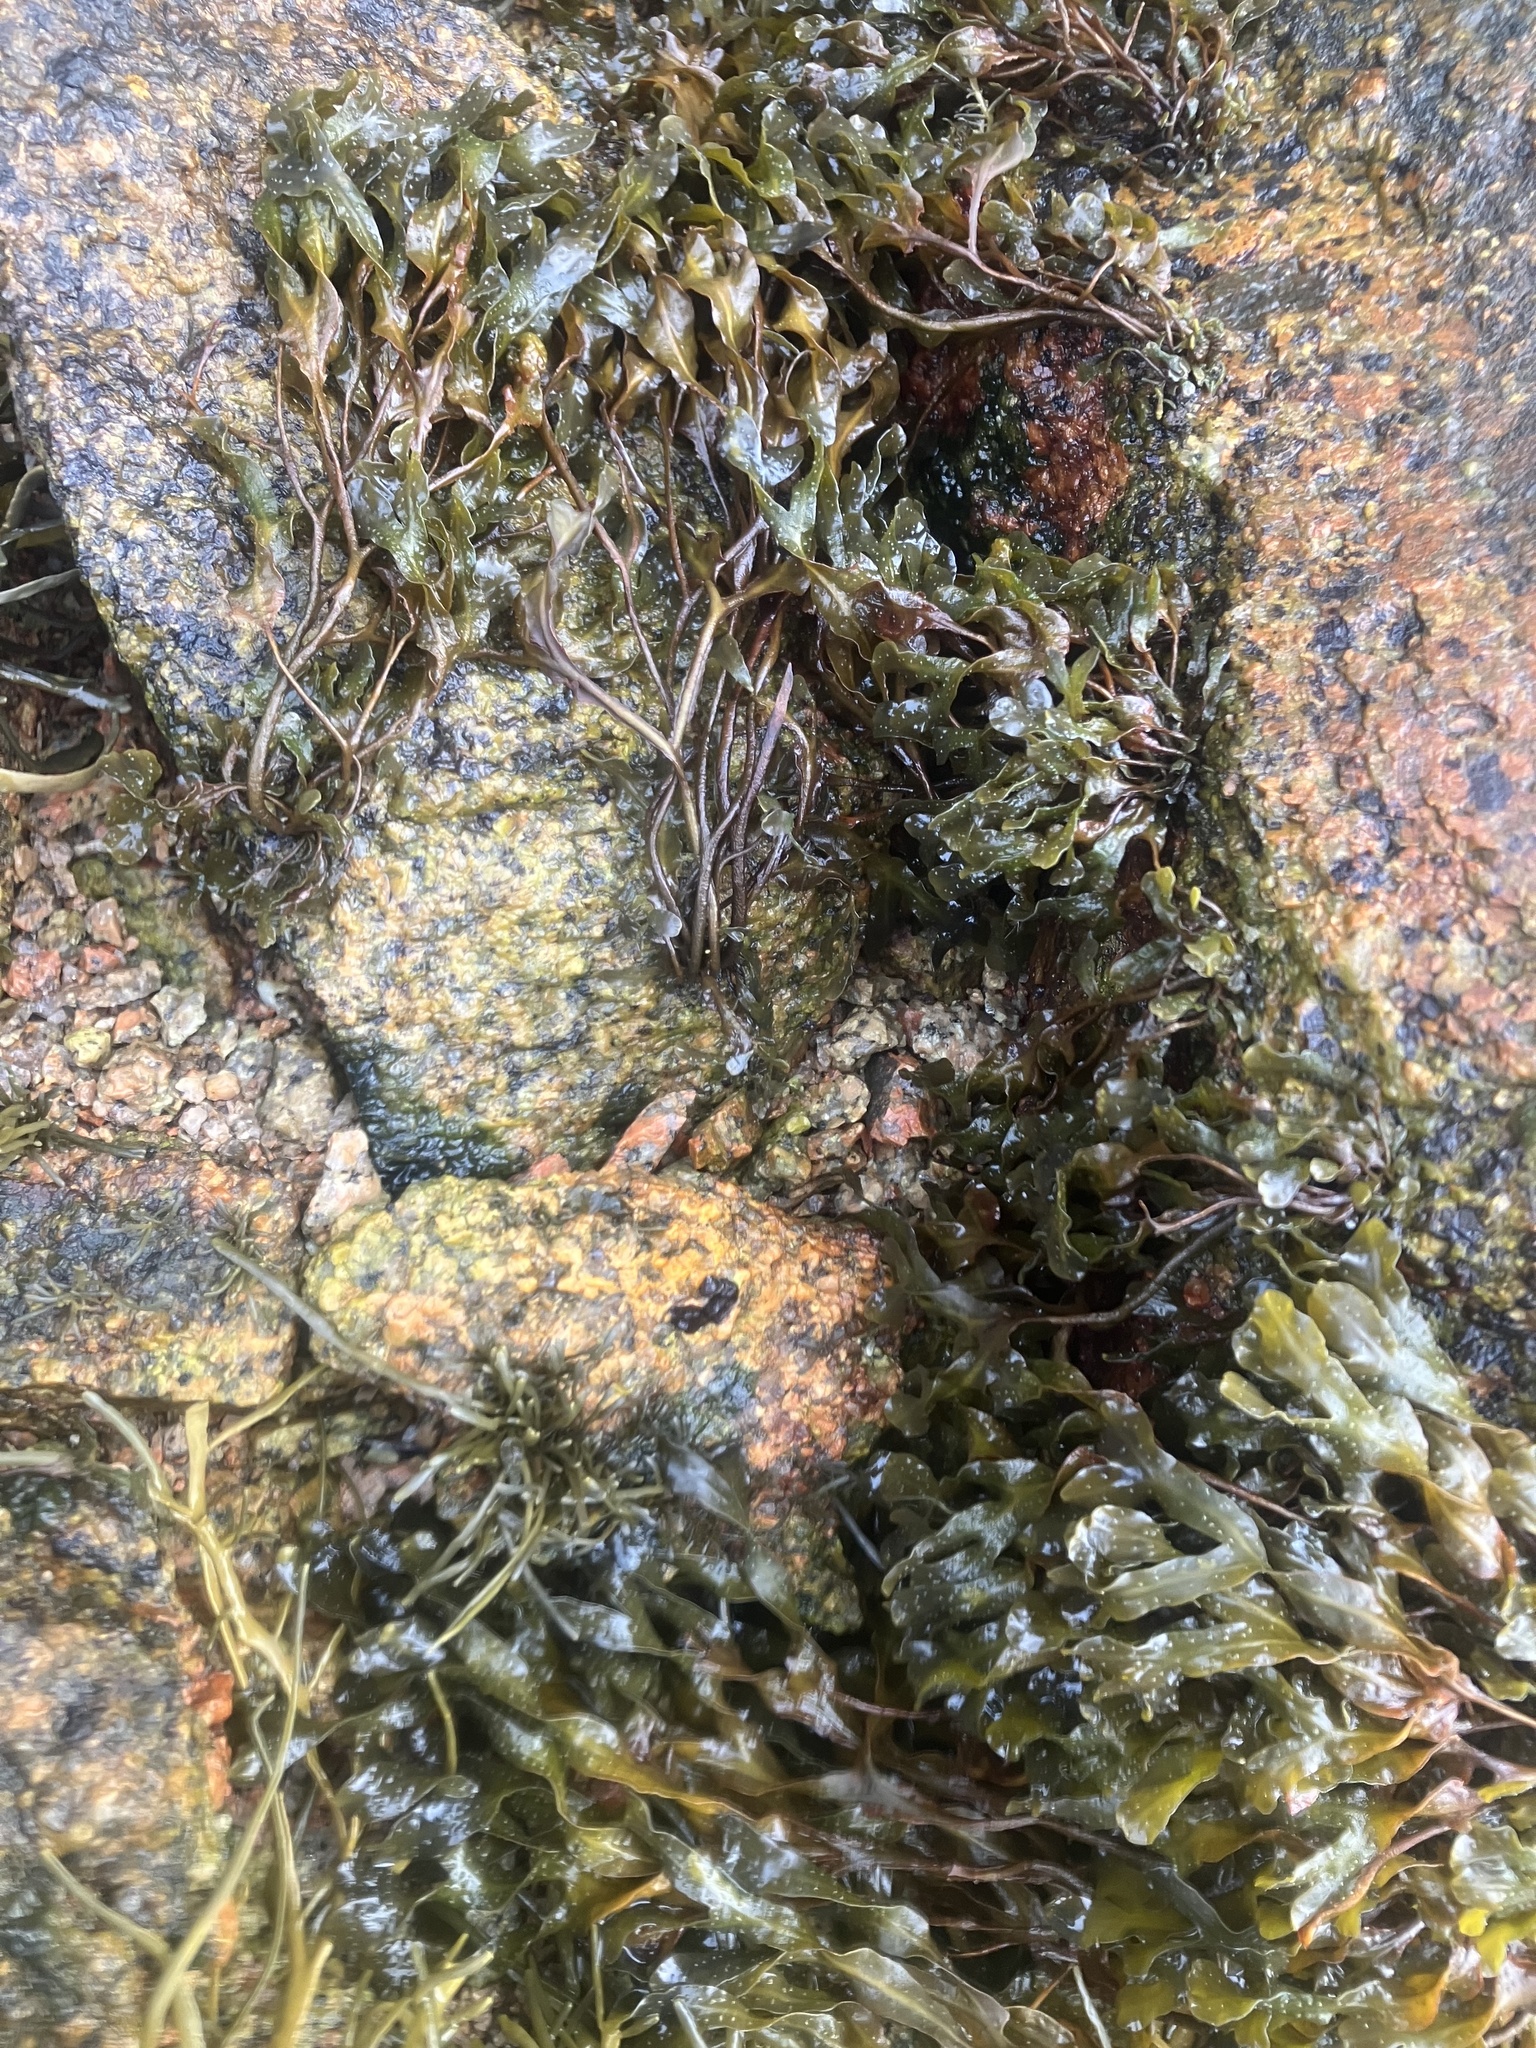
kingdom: Chromista
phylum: Ochrophyta
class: Phaeophyceae
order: Fucales
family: Fucaceae
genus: Fucus
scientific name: Fucus spiralis
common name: Spiral wrack
